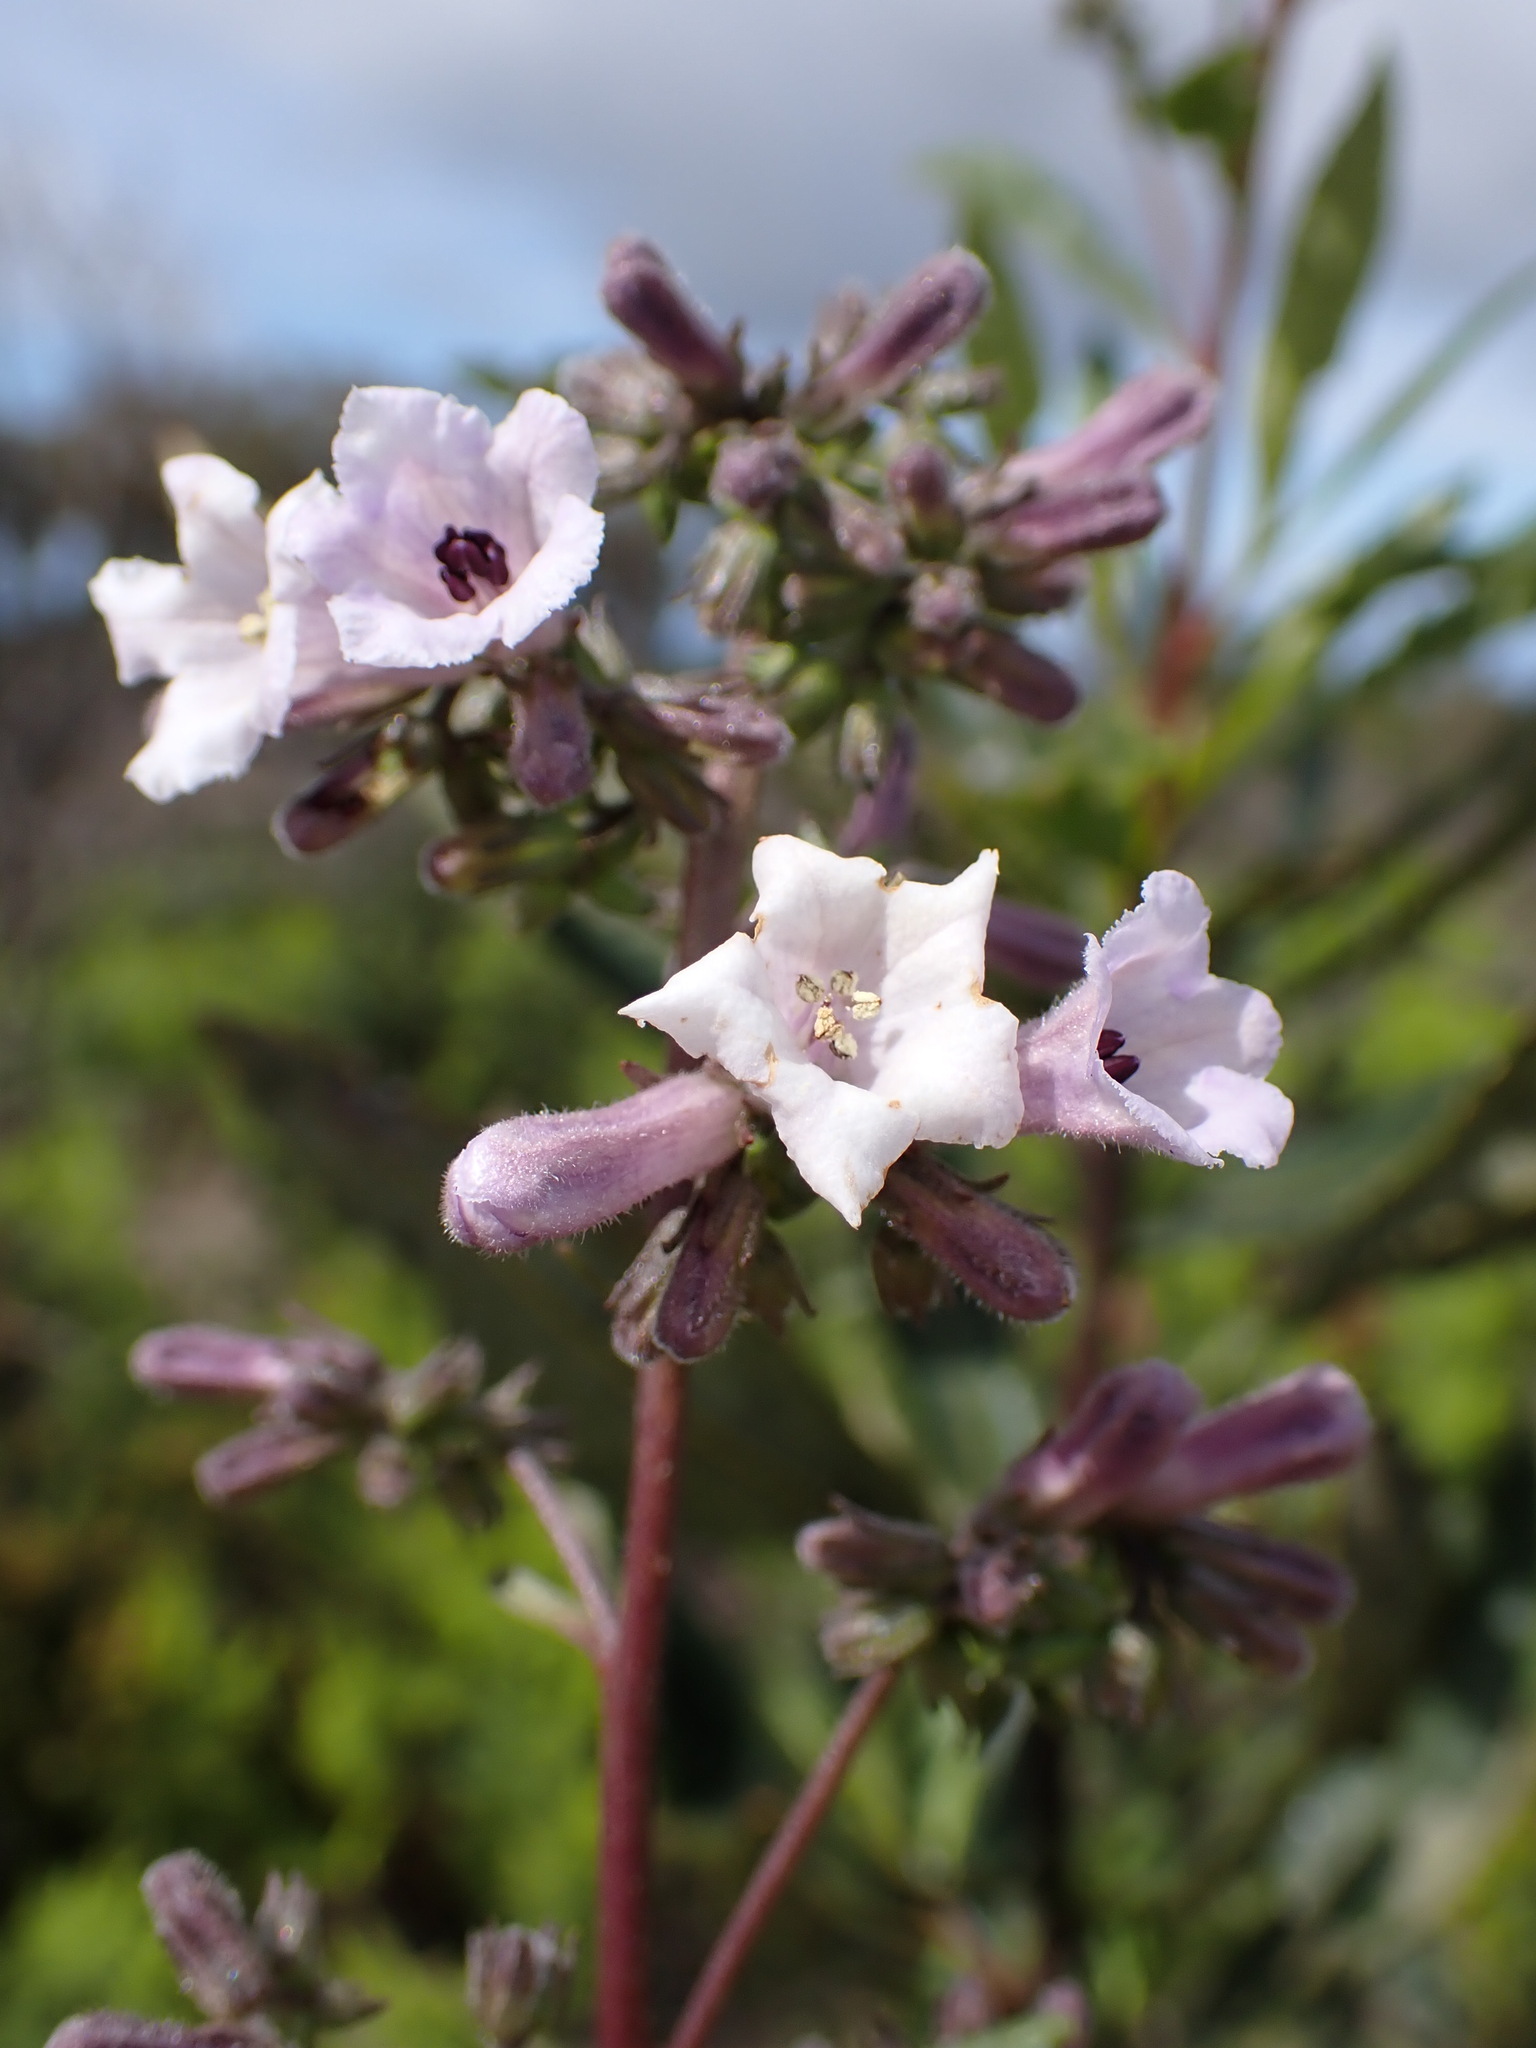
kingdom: Plantae
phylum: Tracheophyta
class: Magnoliopsida
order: Boraginales
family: Namaceae
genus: Eriodictyon
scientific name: Eriodictyon californicum
